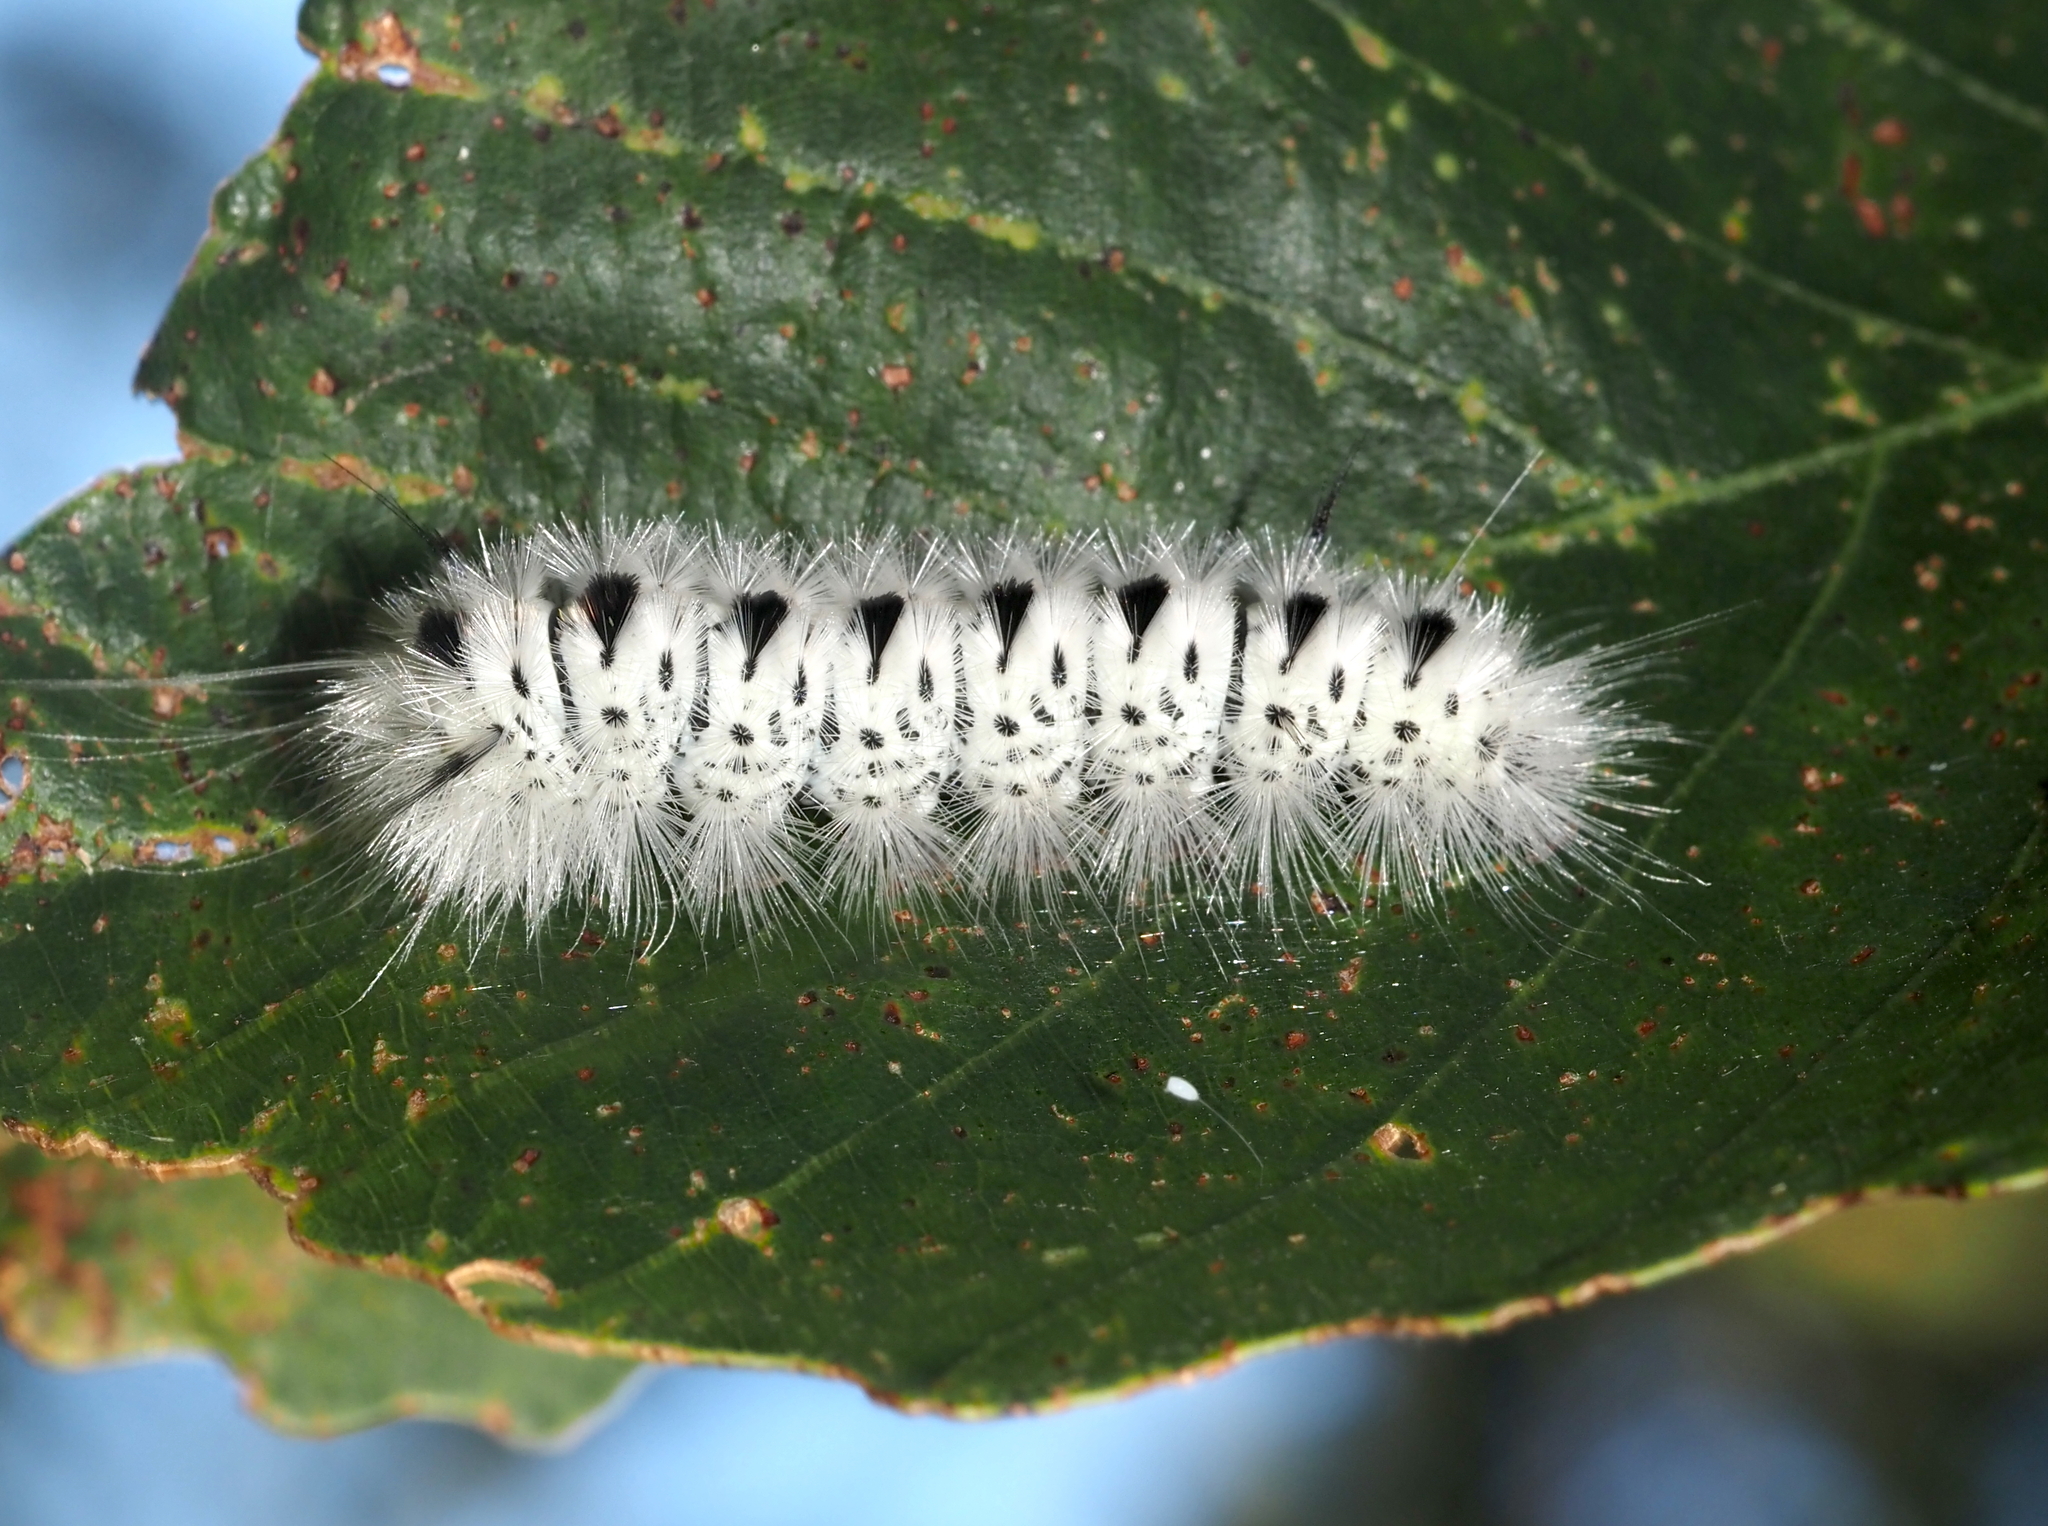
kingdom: Animalia
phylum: Arthropoda
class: Insecta
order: Lepidoptera
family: Erebidae
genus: Lophocampa
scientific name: Lophocampa caryae
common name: Hickory tussock moth
